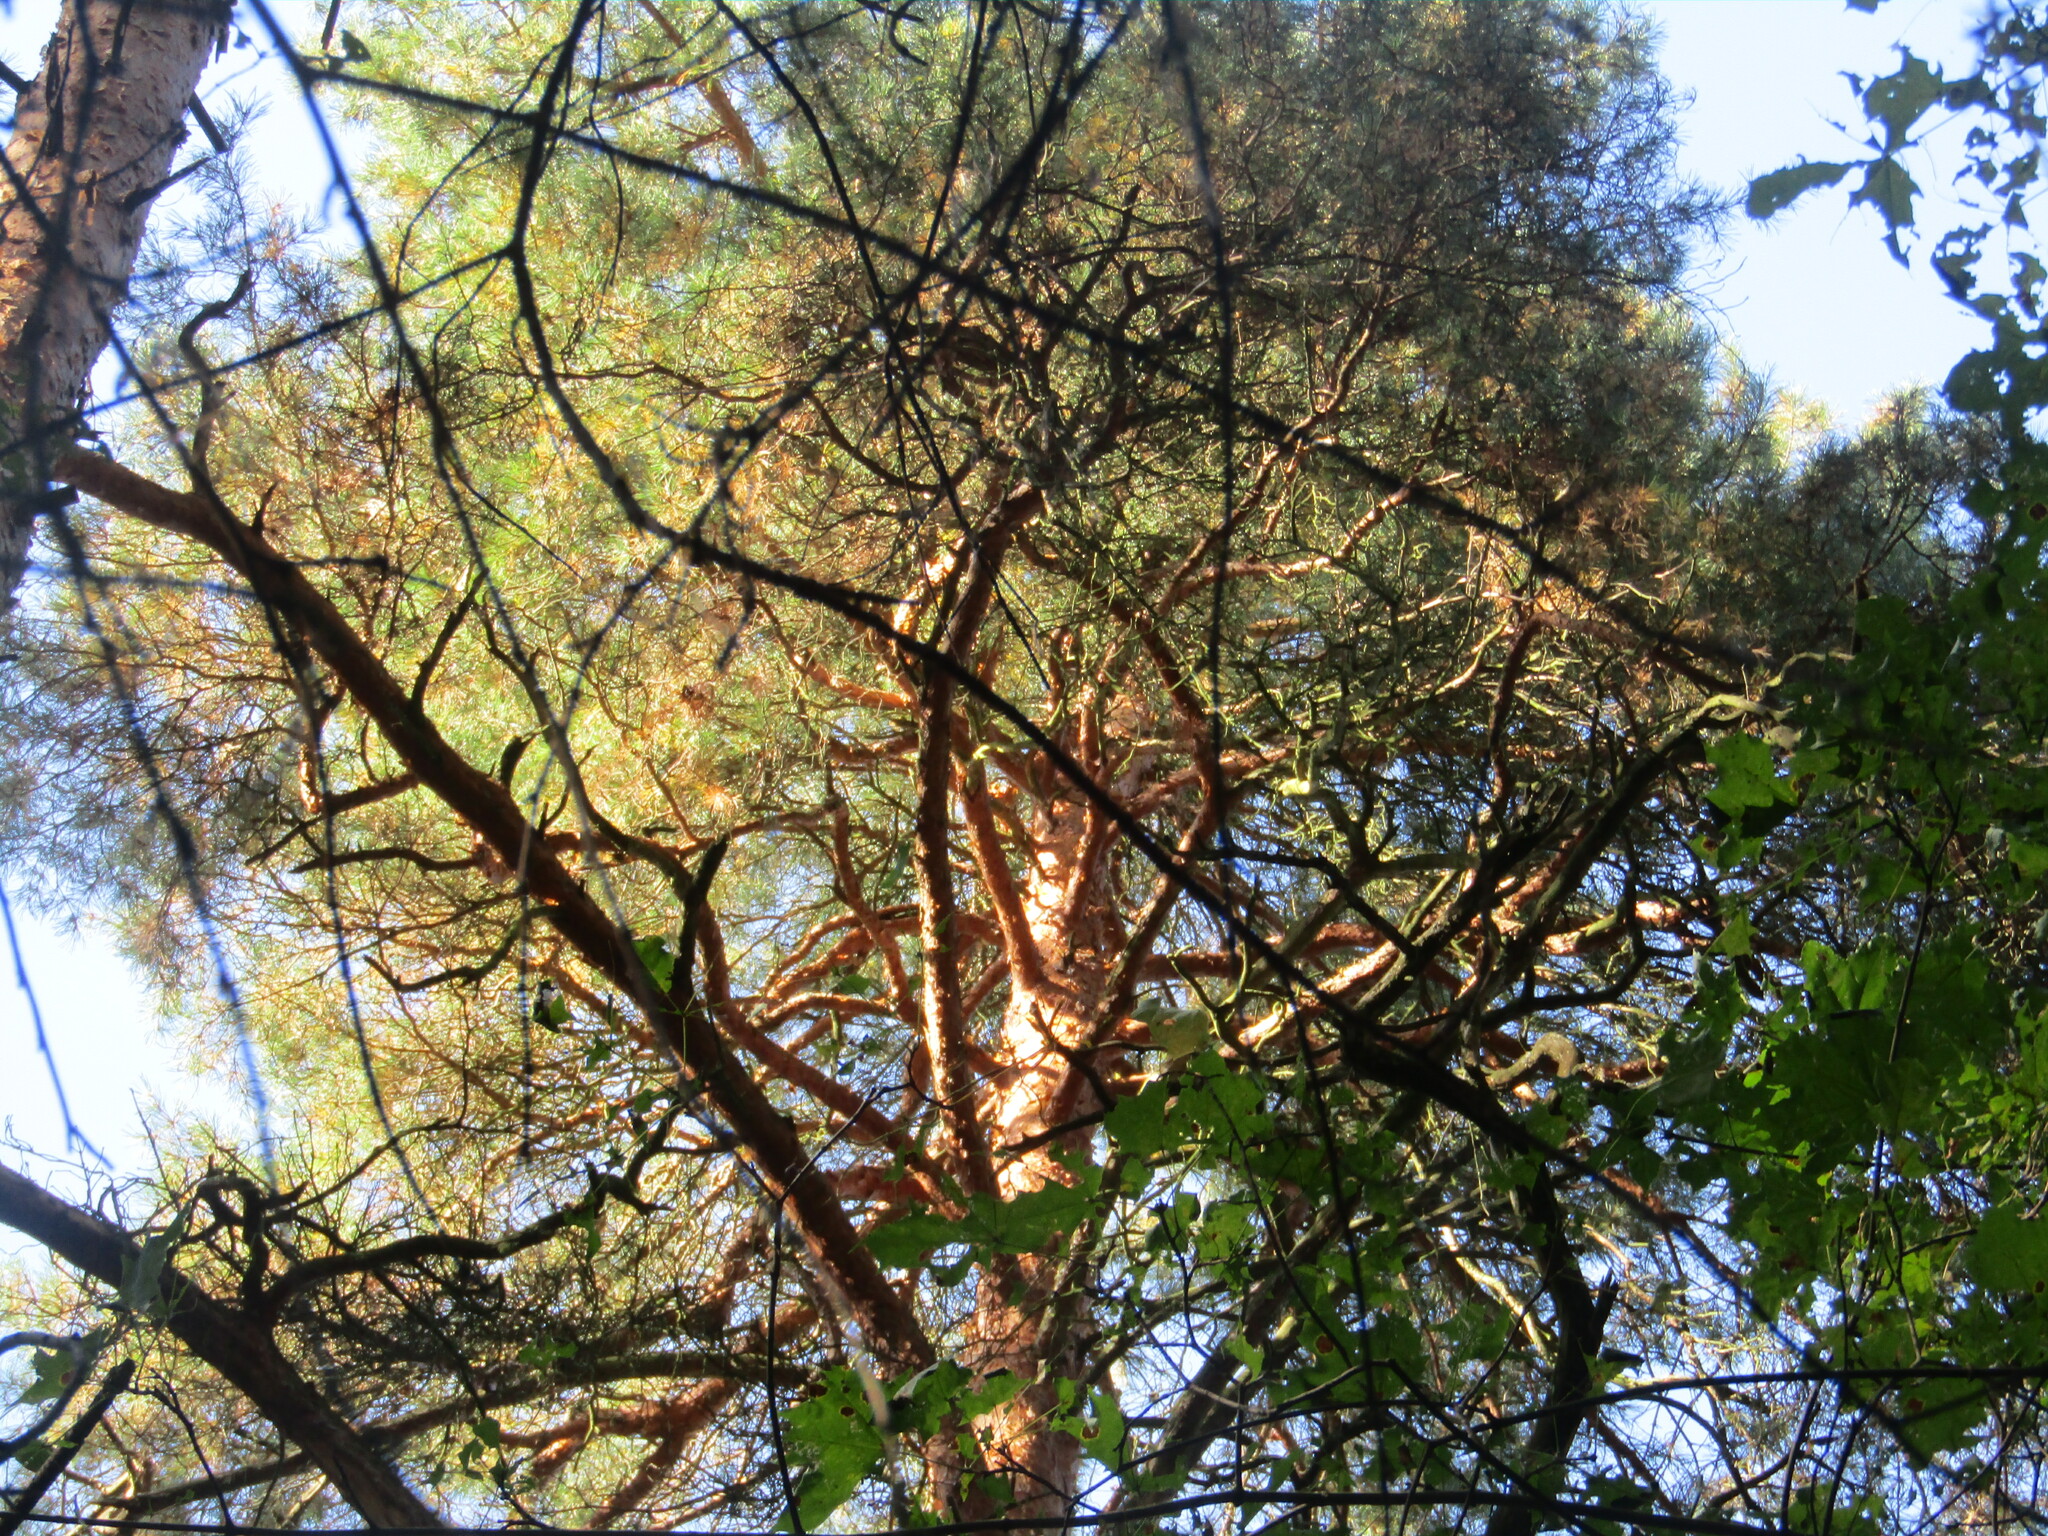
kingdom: Plantae
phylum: Tracheophyta
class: Pinopsida
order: Pinales
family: Pinaceae
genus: Pinus
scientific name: Pinus sylvestris
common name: Scots pine
